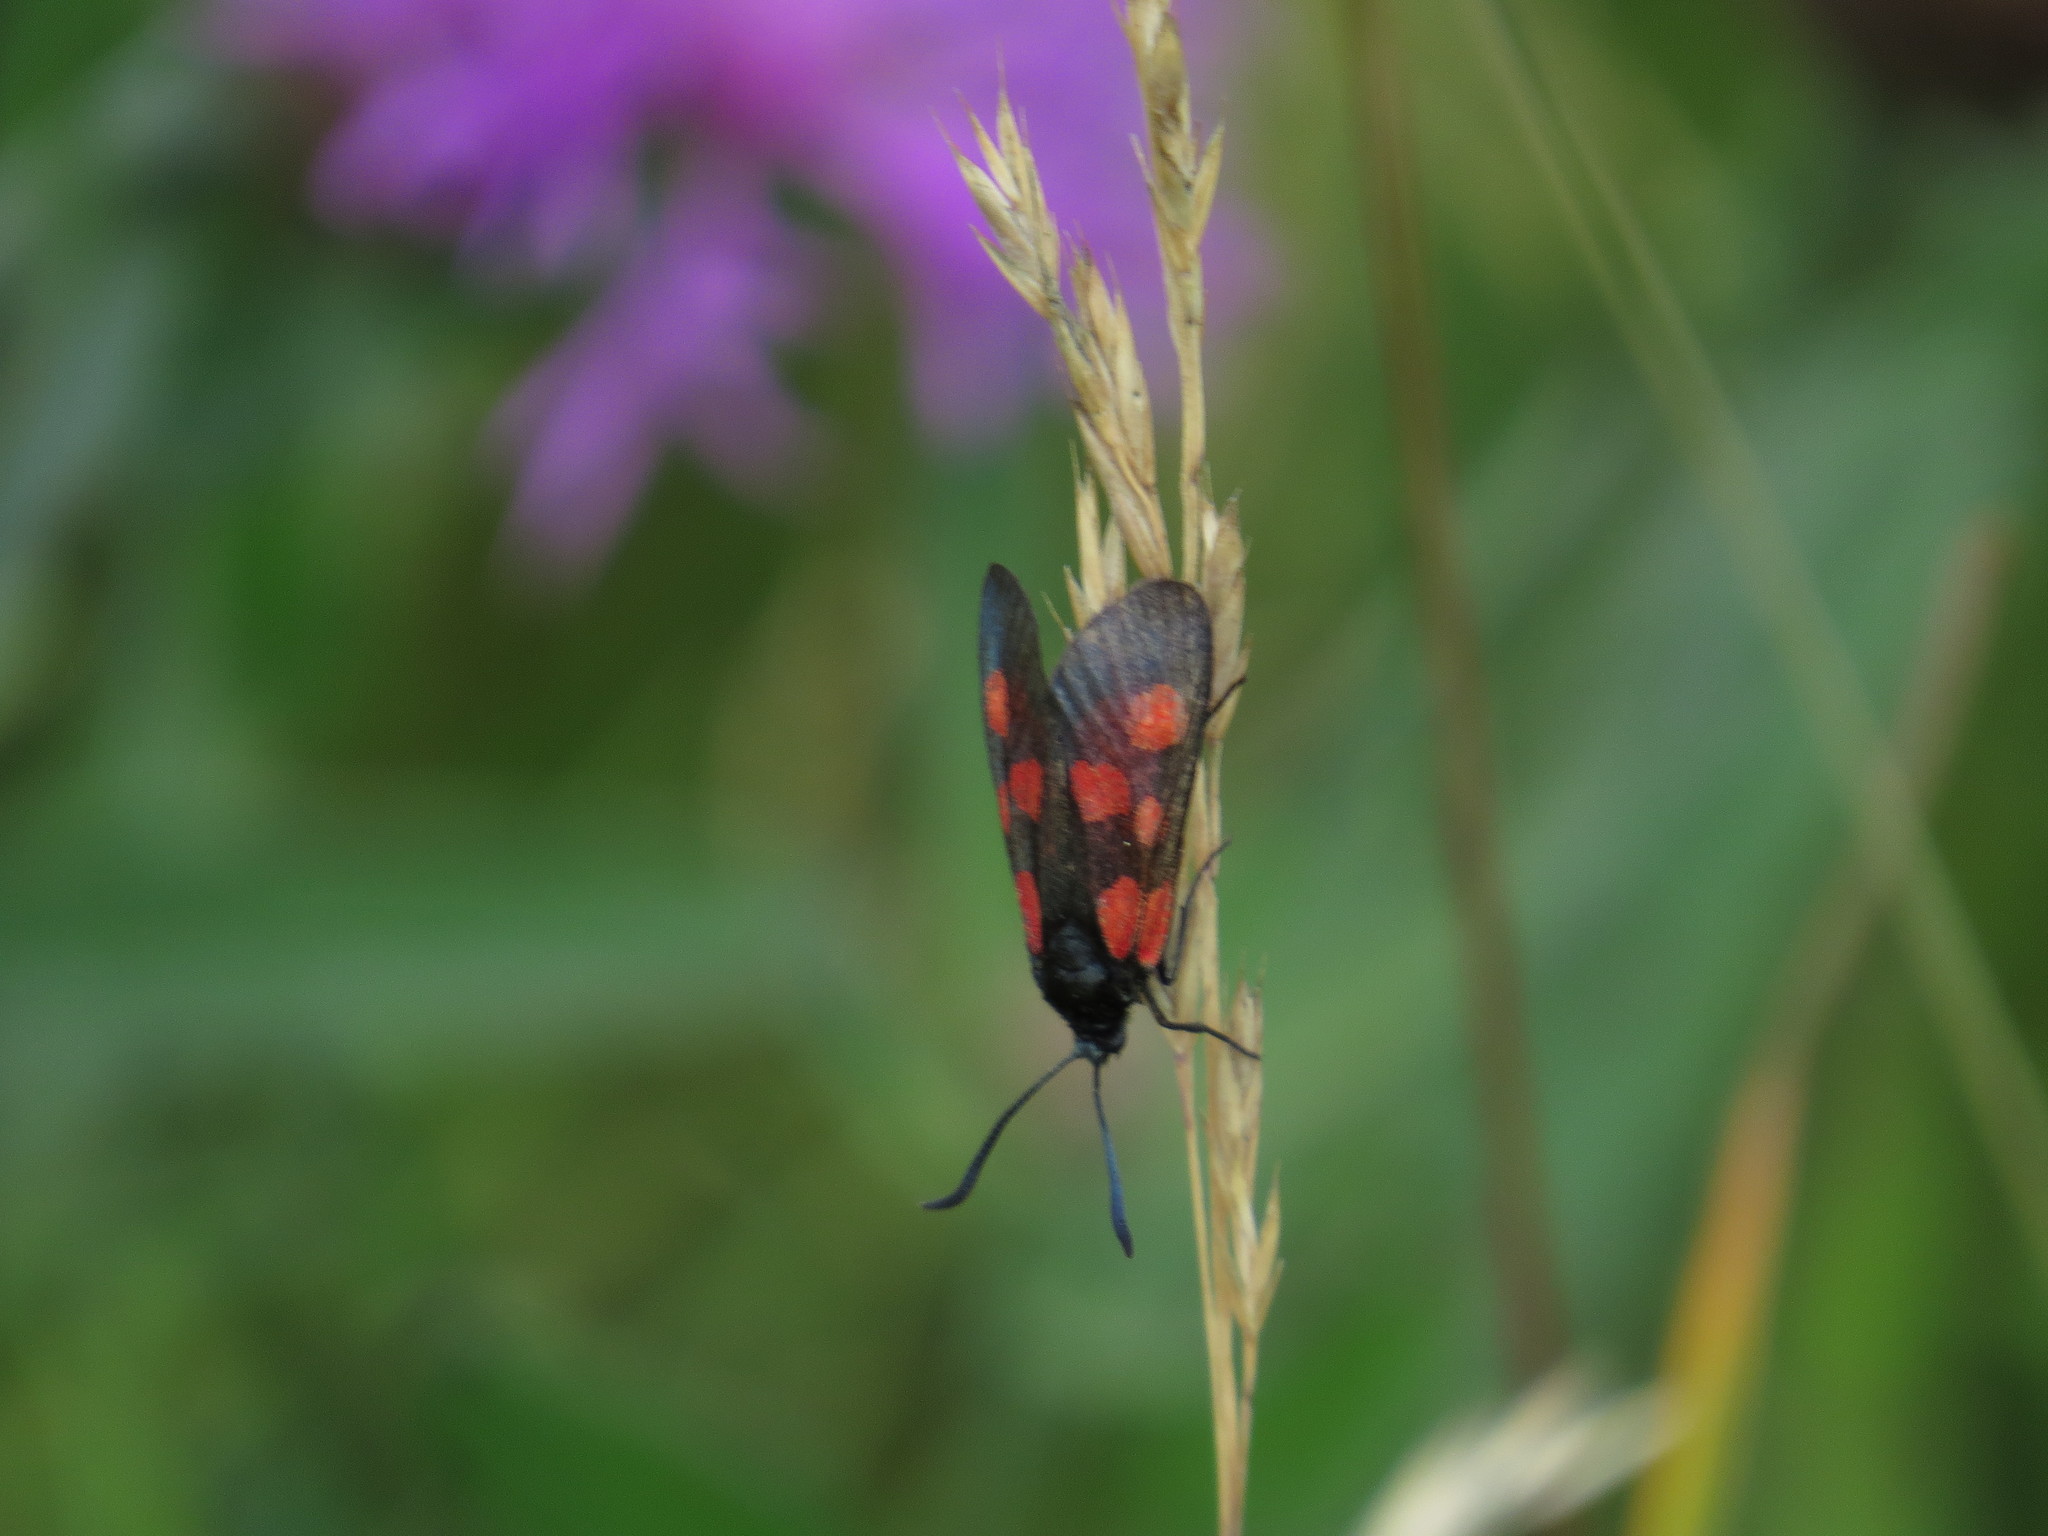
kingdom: Animalia
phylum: Arthropoda
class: Insecta
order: Lepidoptera
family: Zygaenidae
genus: Zygaena
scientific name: Zygaena viciae
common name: New forest burnet
